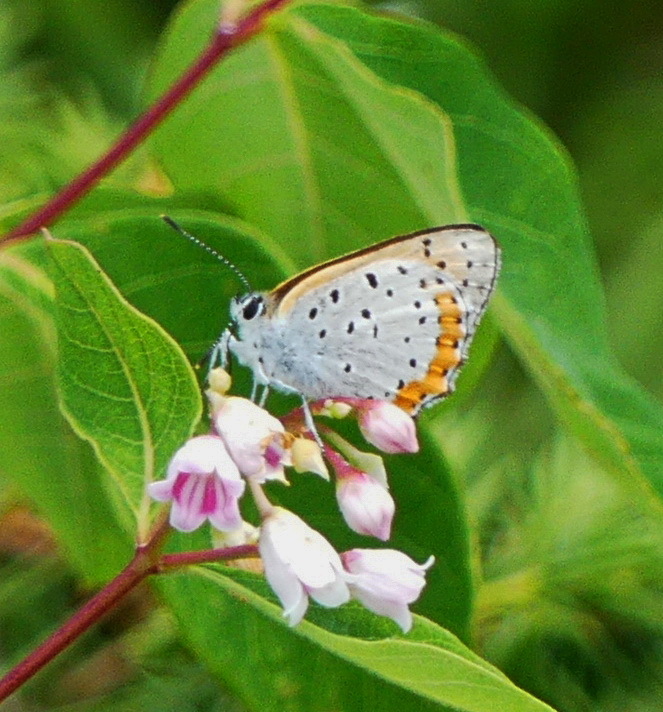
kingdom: Animalia
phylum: Arthropoda
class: Insecta
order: Lepidoptera
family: Lycaenidae
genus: Tharsalea
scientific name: Tharsalea hyllus
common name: Bronze copper
